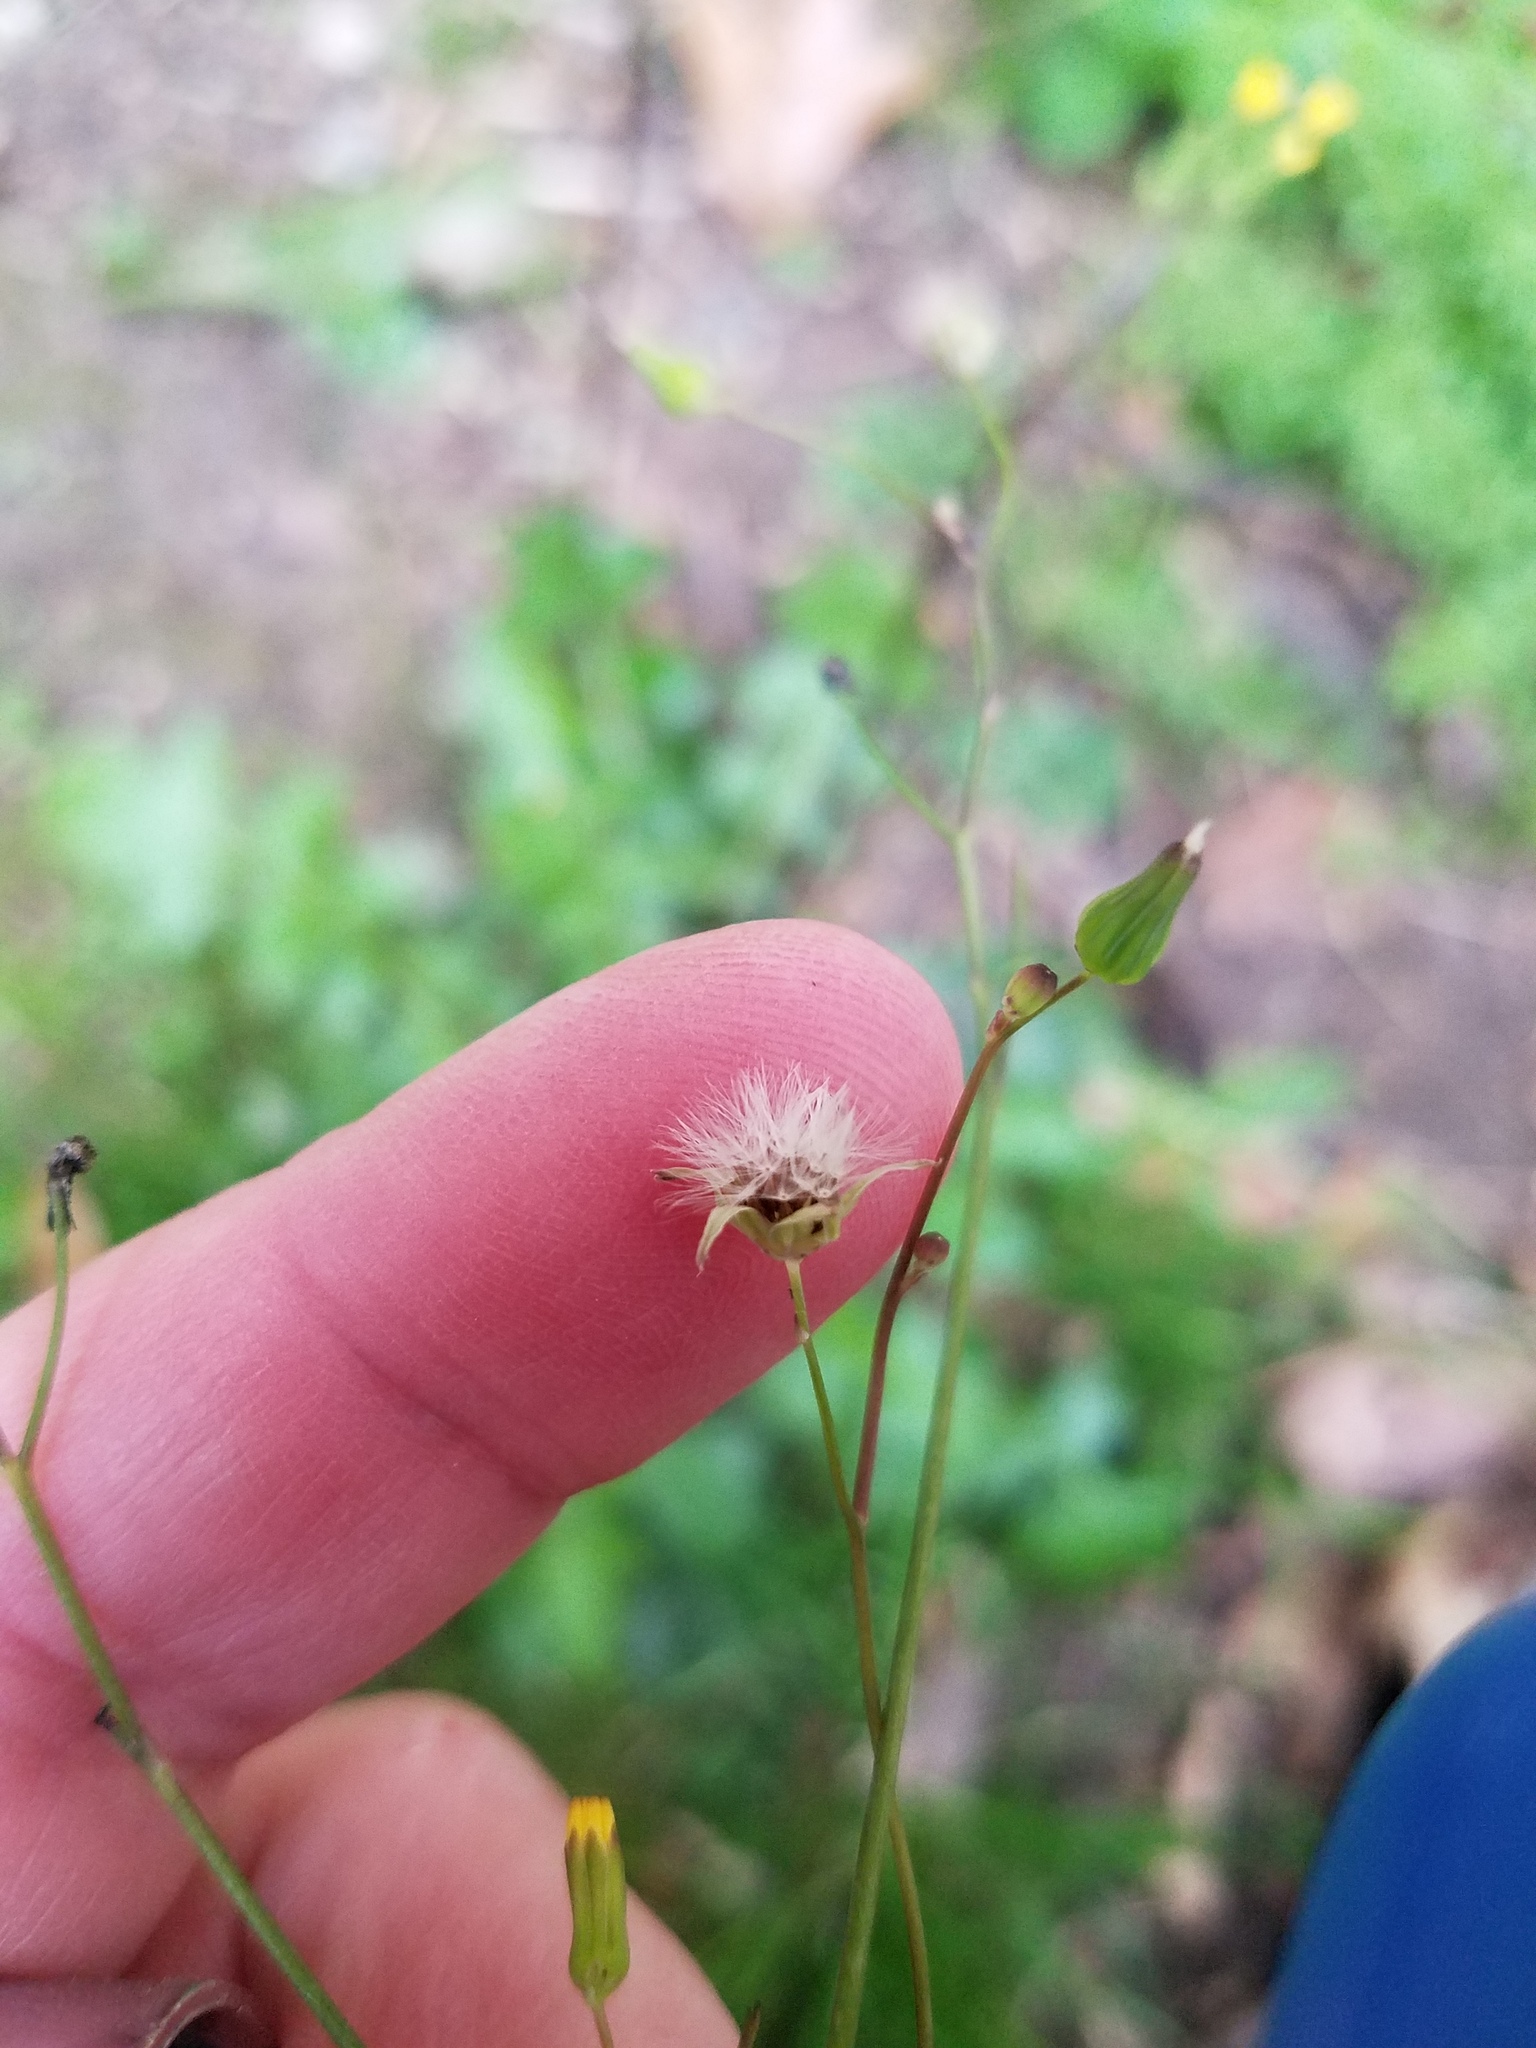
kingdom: Plantae
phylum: Tracheophyta
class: Magnoliopsida
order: Asterales
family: Asteraceae
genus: Youngia
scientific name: Youngia japonica
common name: Oriental false hawksbeard
